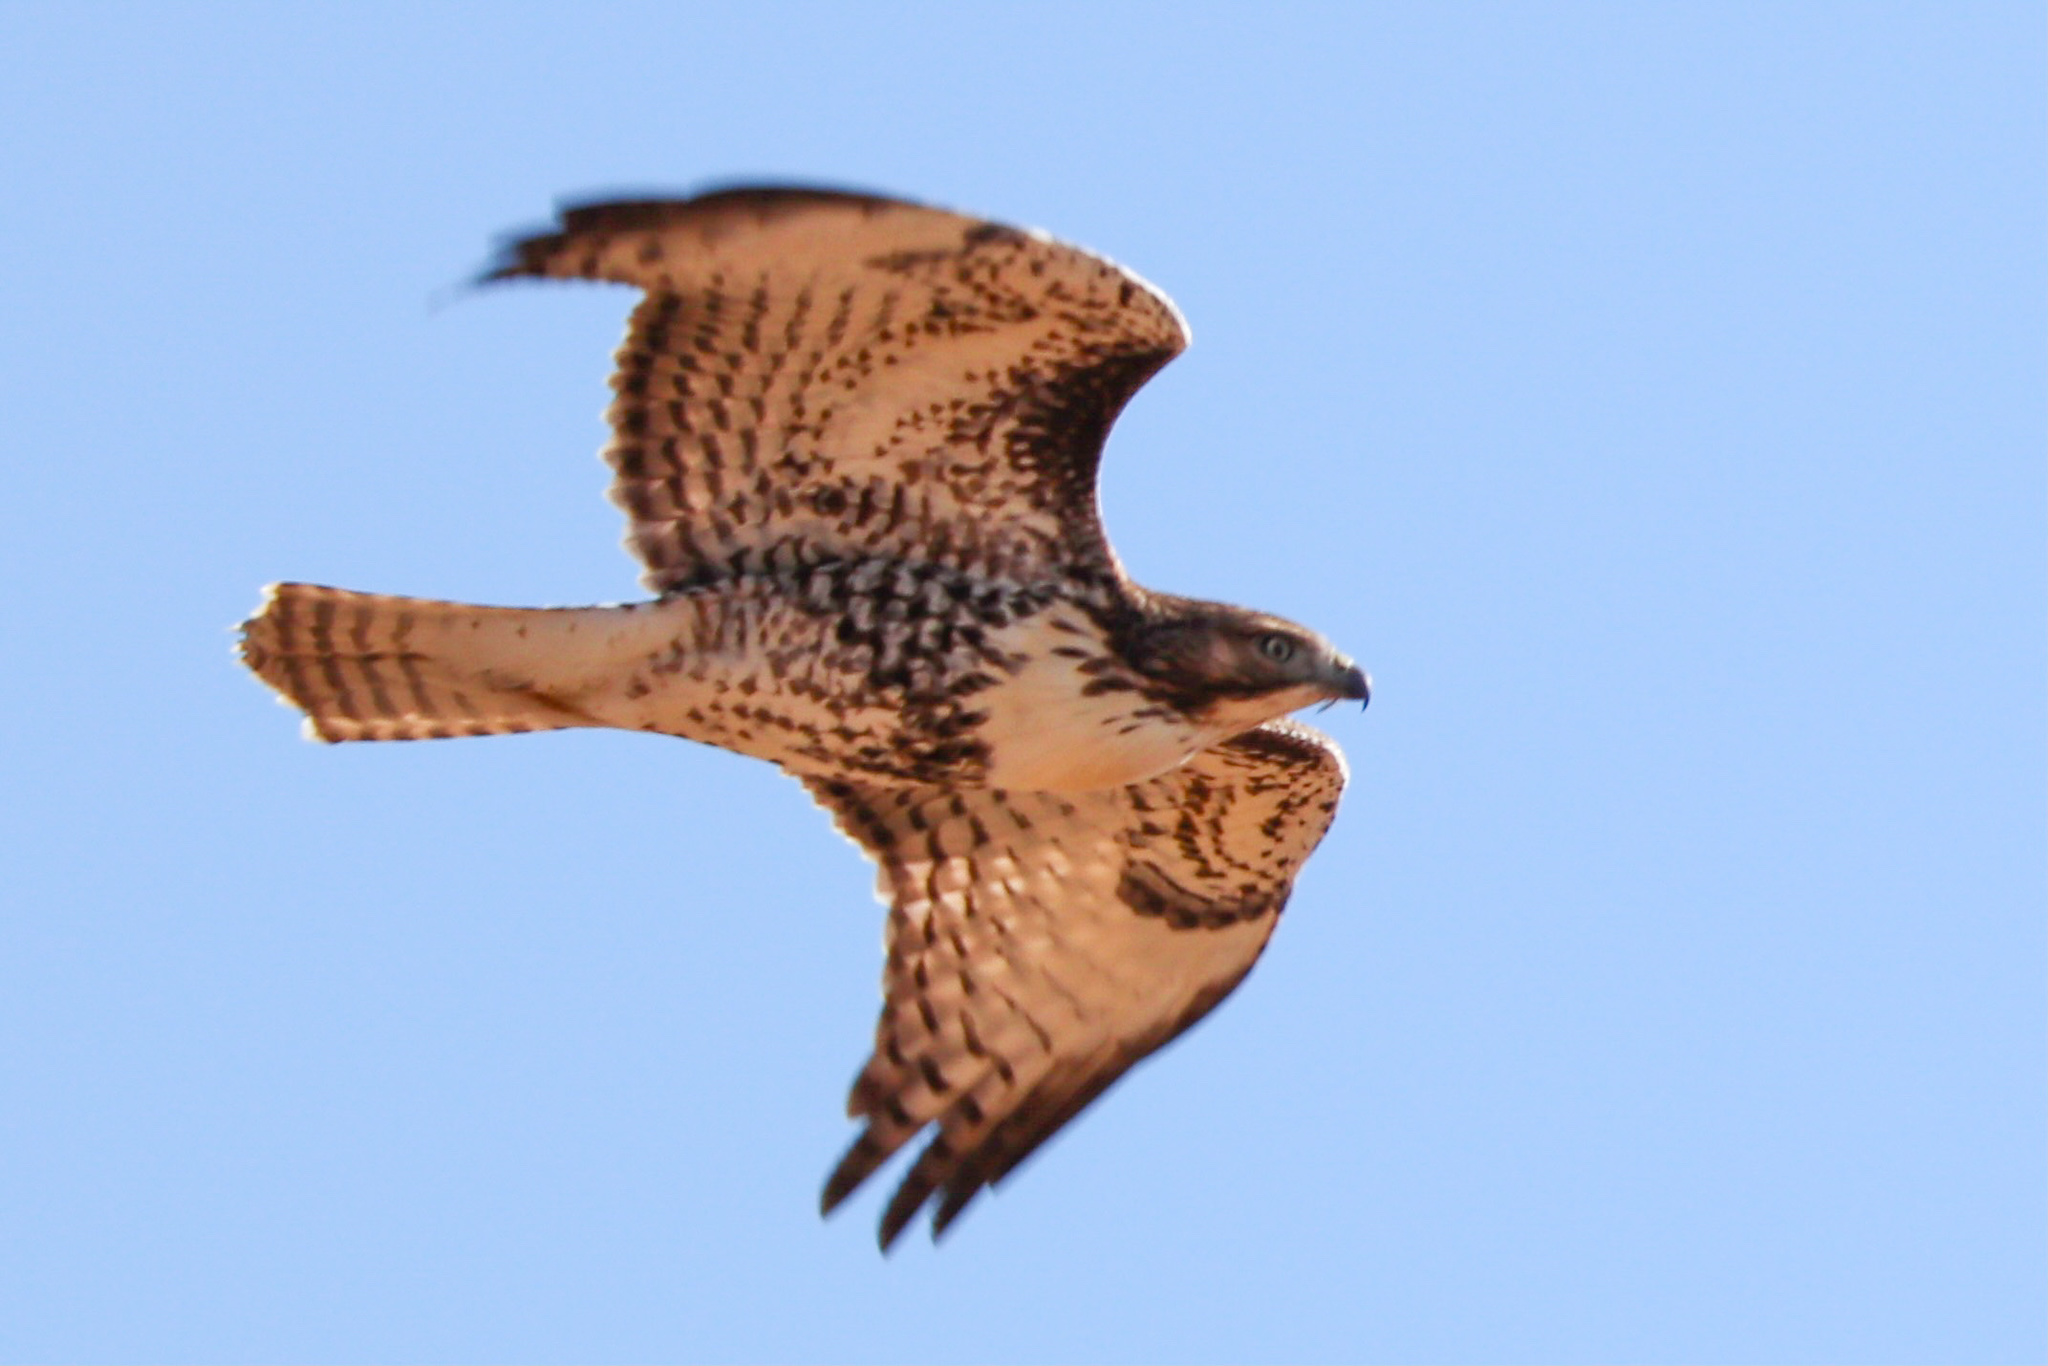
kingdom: Animalia
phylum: Chordata
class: Aves
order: Accipitriformes
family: Accipitridae
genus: Buteo
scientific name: Buteo jamaicensis
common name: Red-tailed hawk
